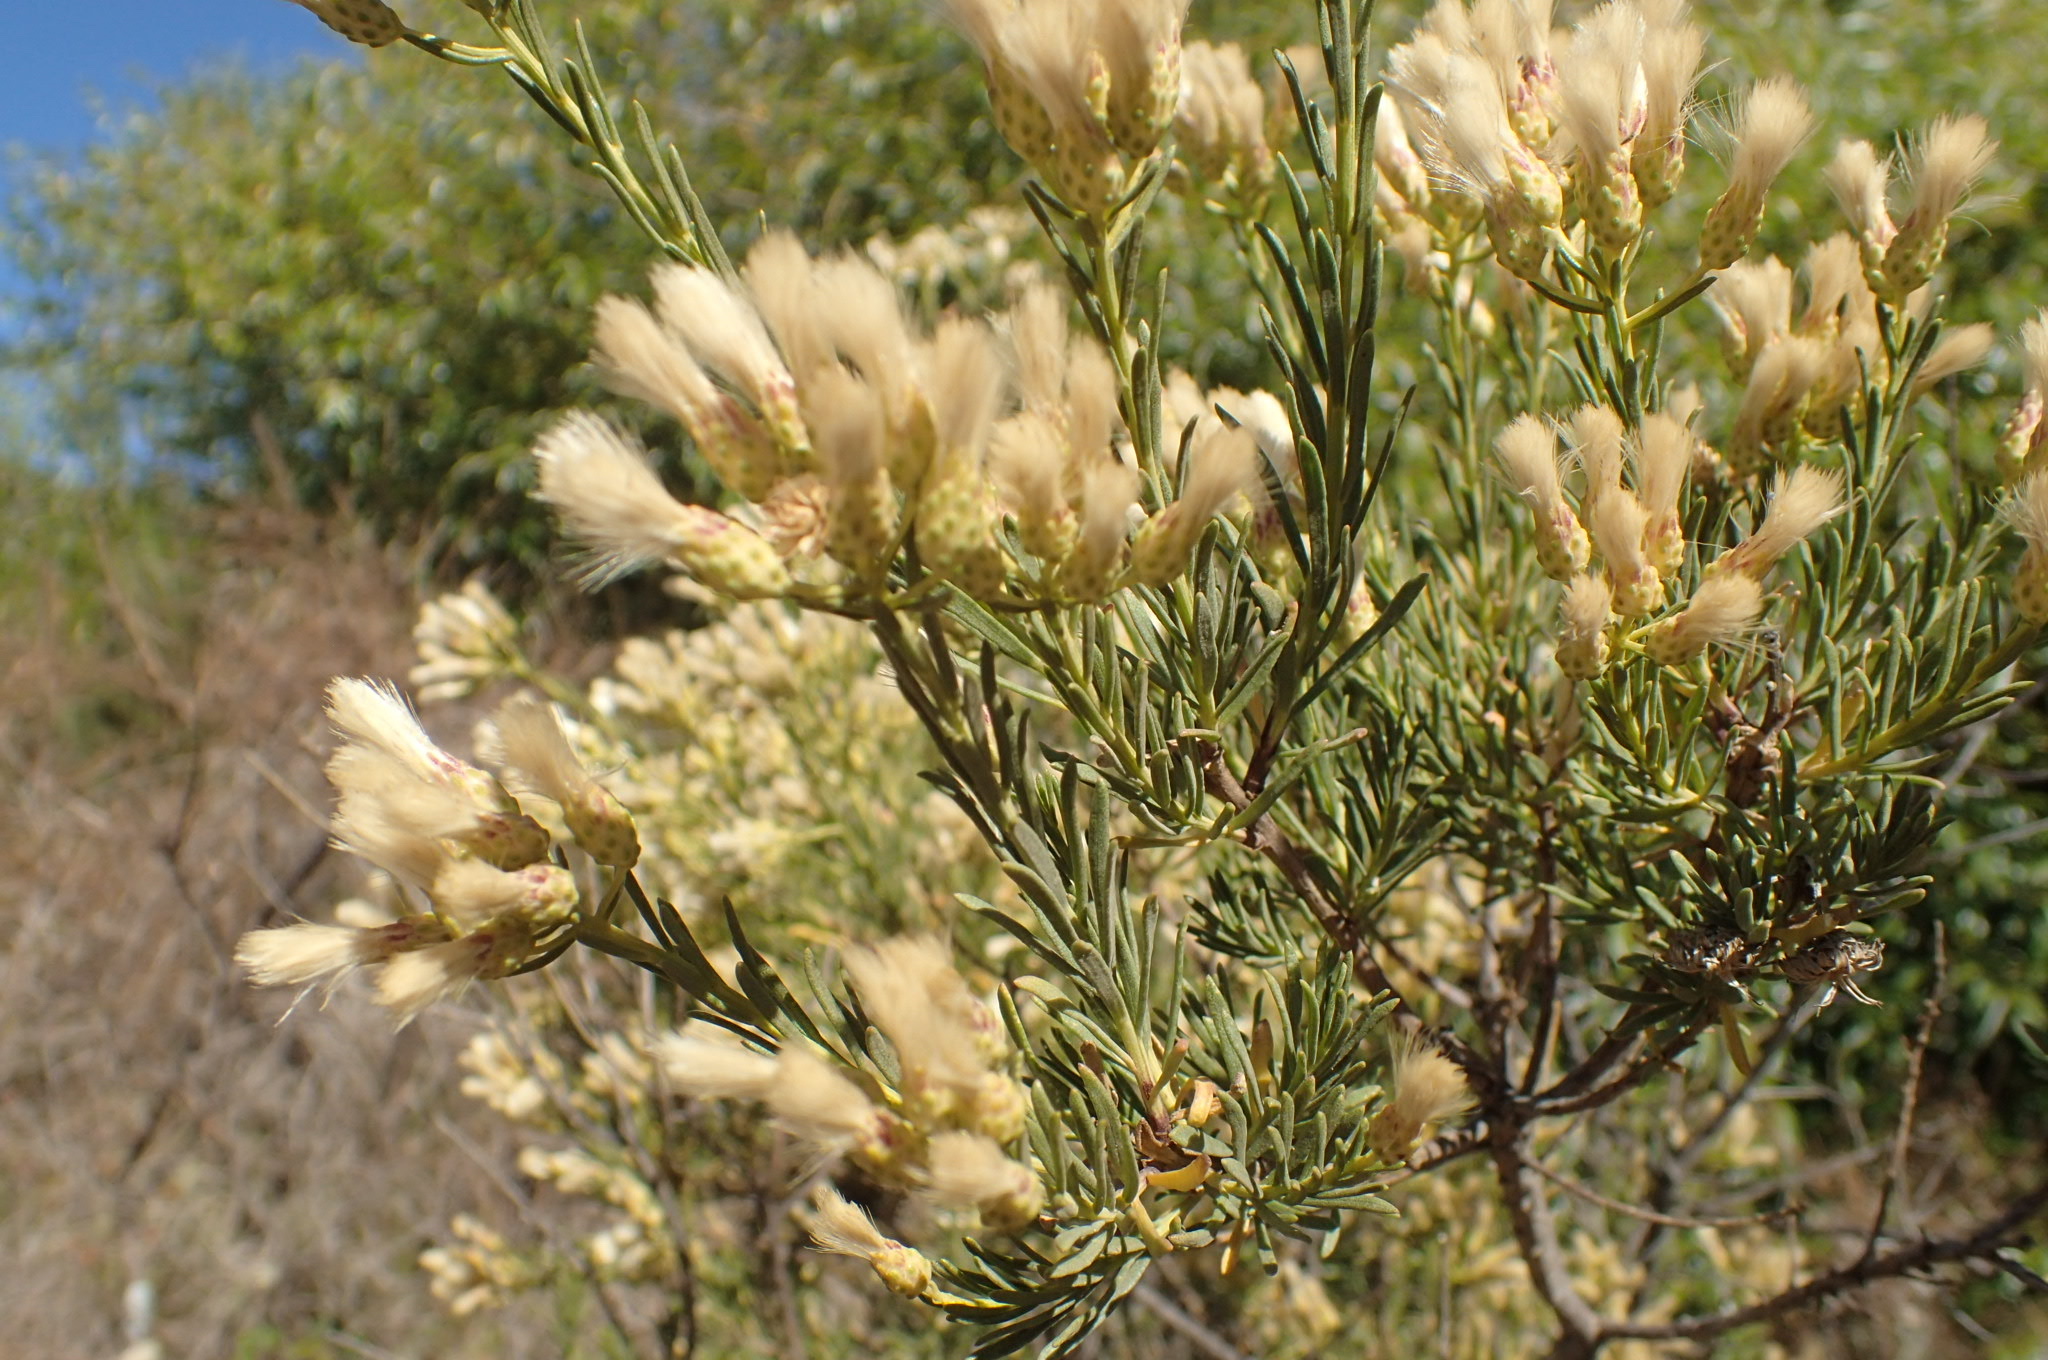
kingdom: Plantae
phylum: Tracheophyta
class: Magnoliopsida
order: Asterales
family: Asteraceae
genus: Baccharis
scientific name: Baccharis linearis
